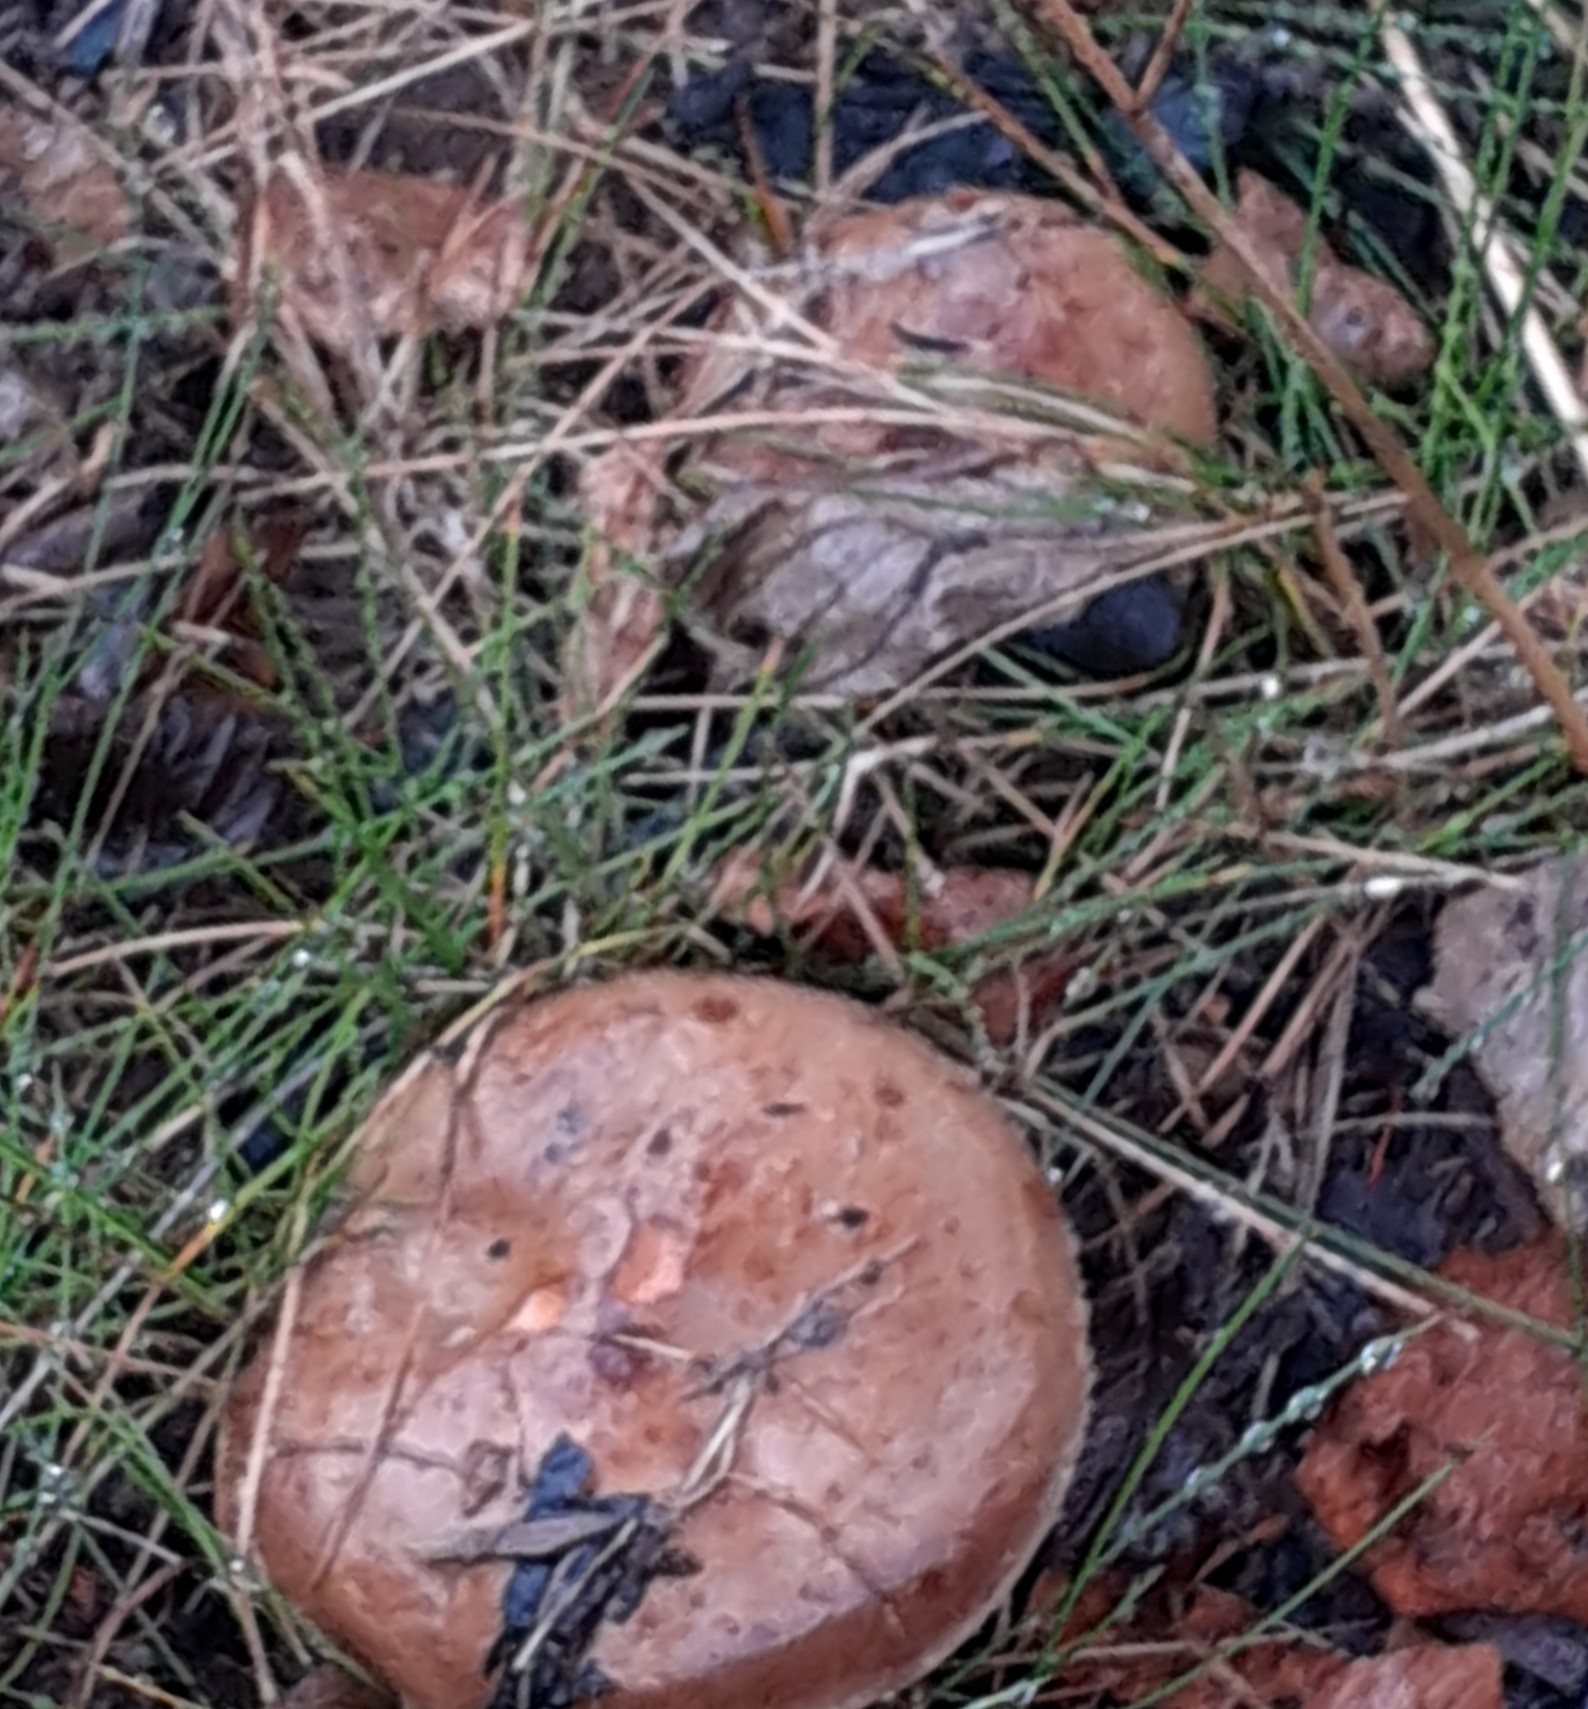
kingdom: Fungi
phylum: Basidiomycota
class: Agaricomycetes
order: Boletales
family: Paxillaceae
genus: Paxillus
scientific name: Paxillus involutus
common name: Brown roll rim
